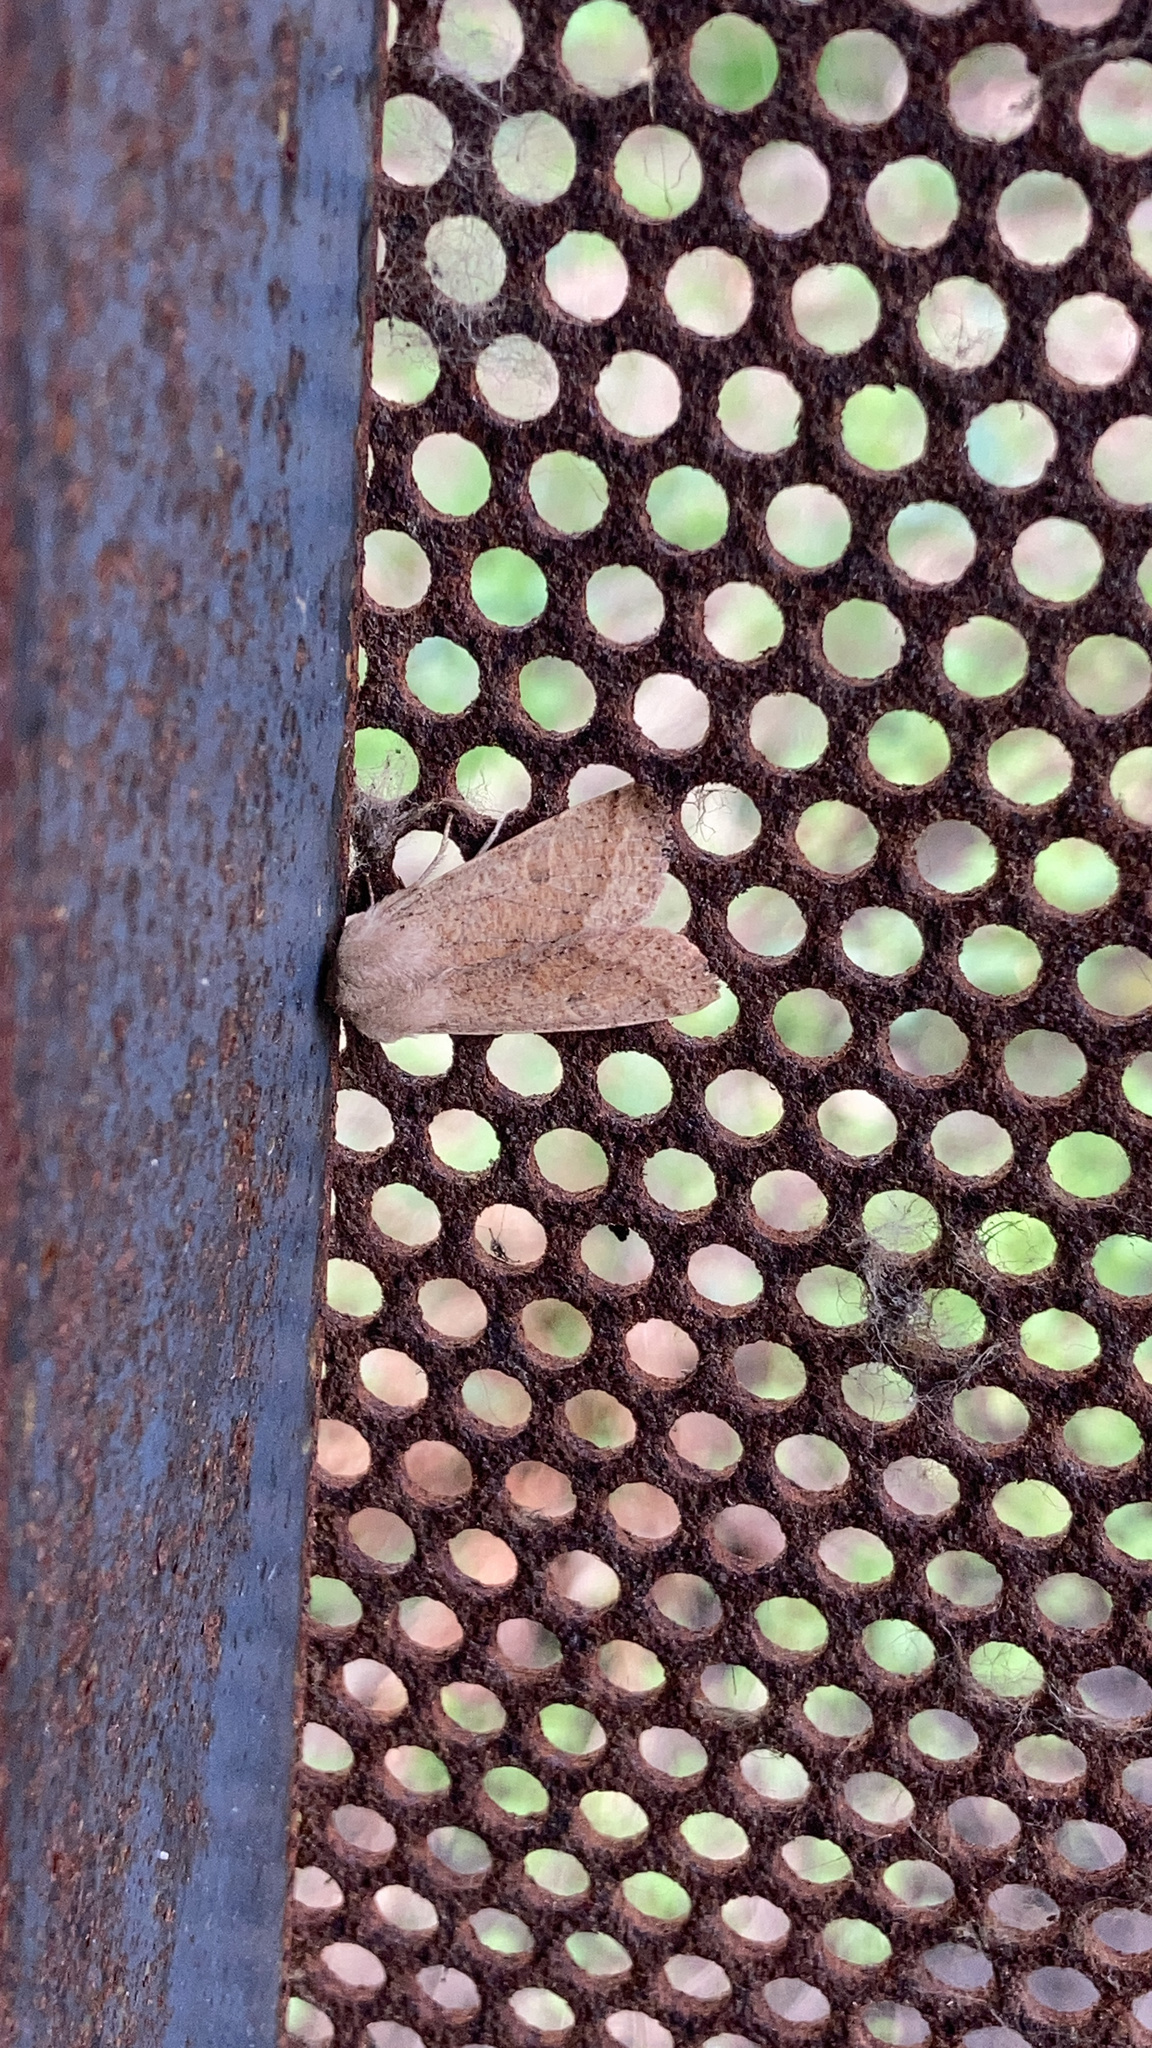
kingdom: Animalia
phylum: Arthropoda
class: Insecta
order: Lepidoptera
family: Noctuidae
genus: Orthosia
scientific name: Orthosia pacifica
